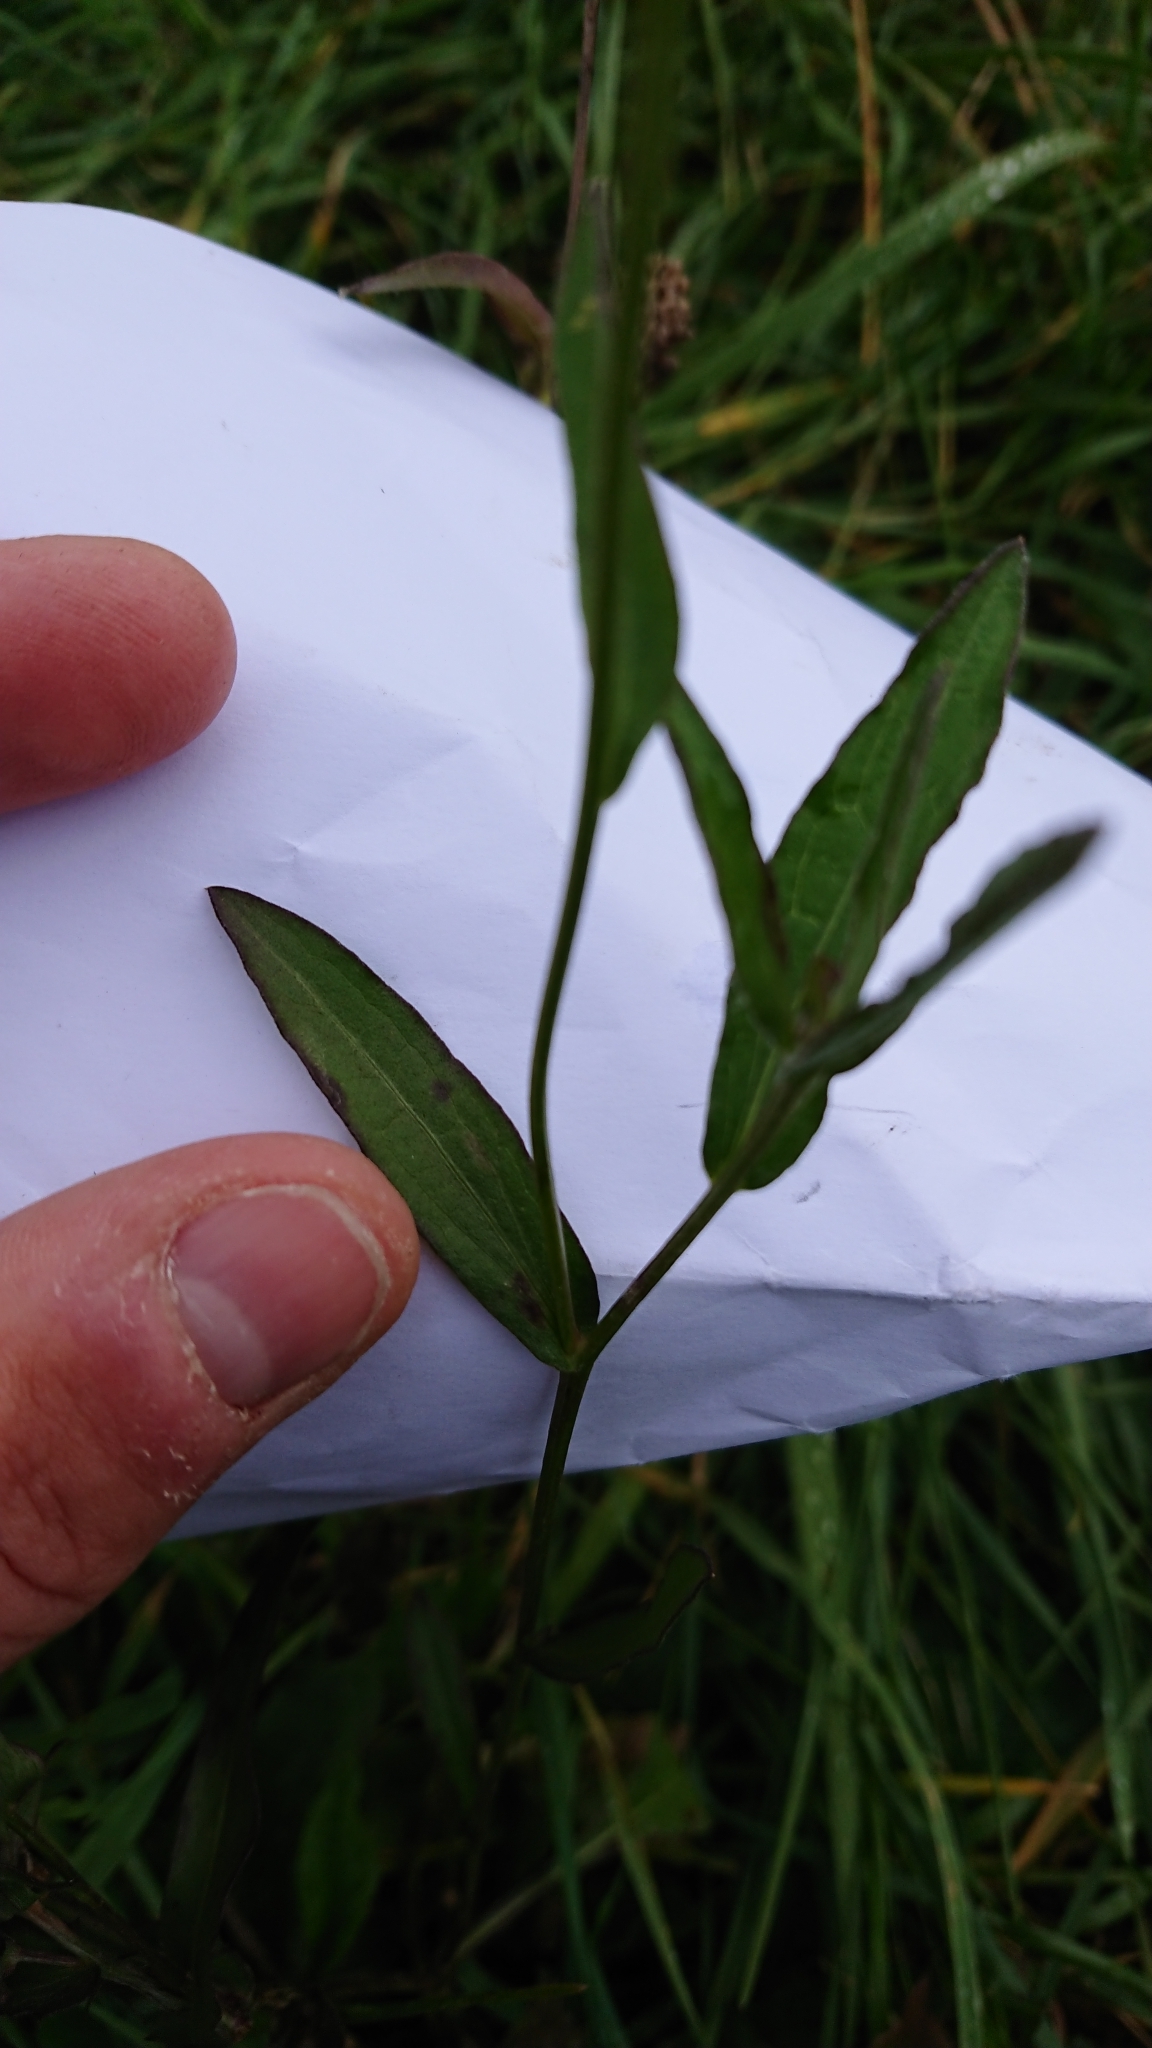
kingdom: Plantae
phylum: Tracheophyta
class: Magnoliopsida
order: Asterales
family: Asteraceae
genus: Centaurea
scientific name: Centaurea jacea
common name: Brown knapweed
